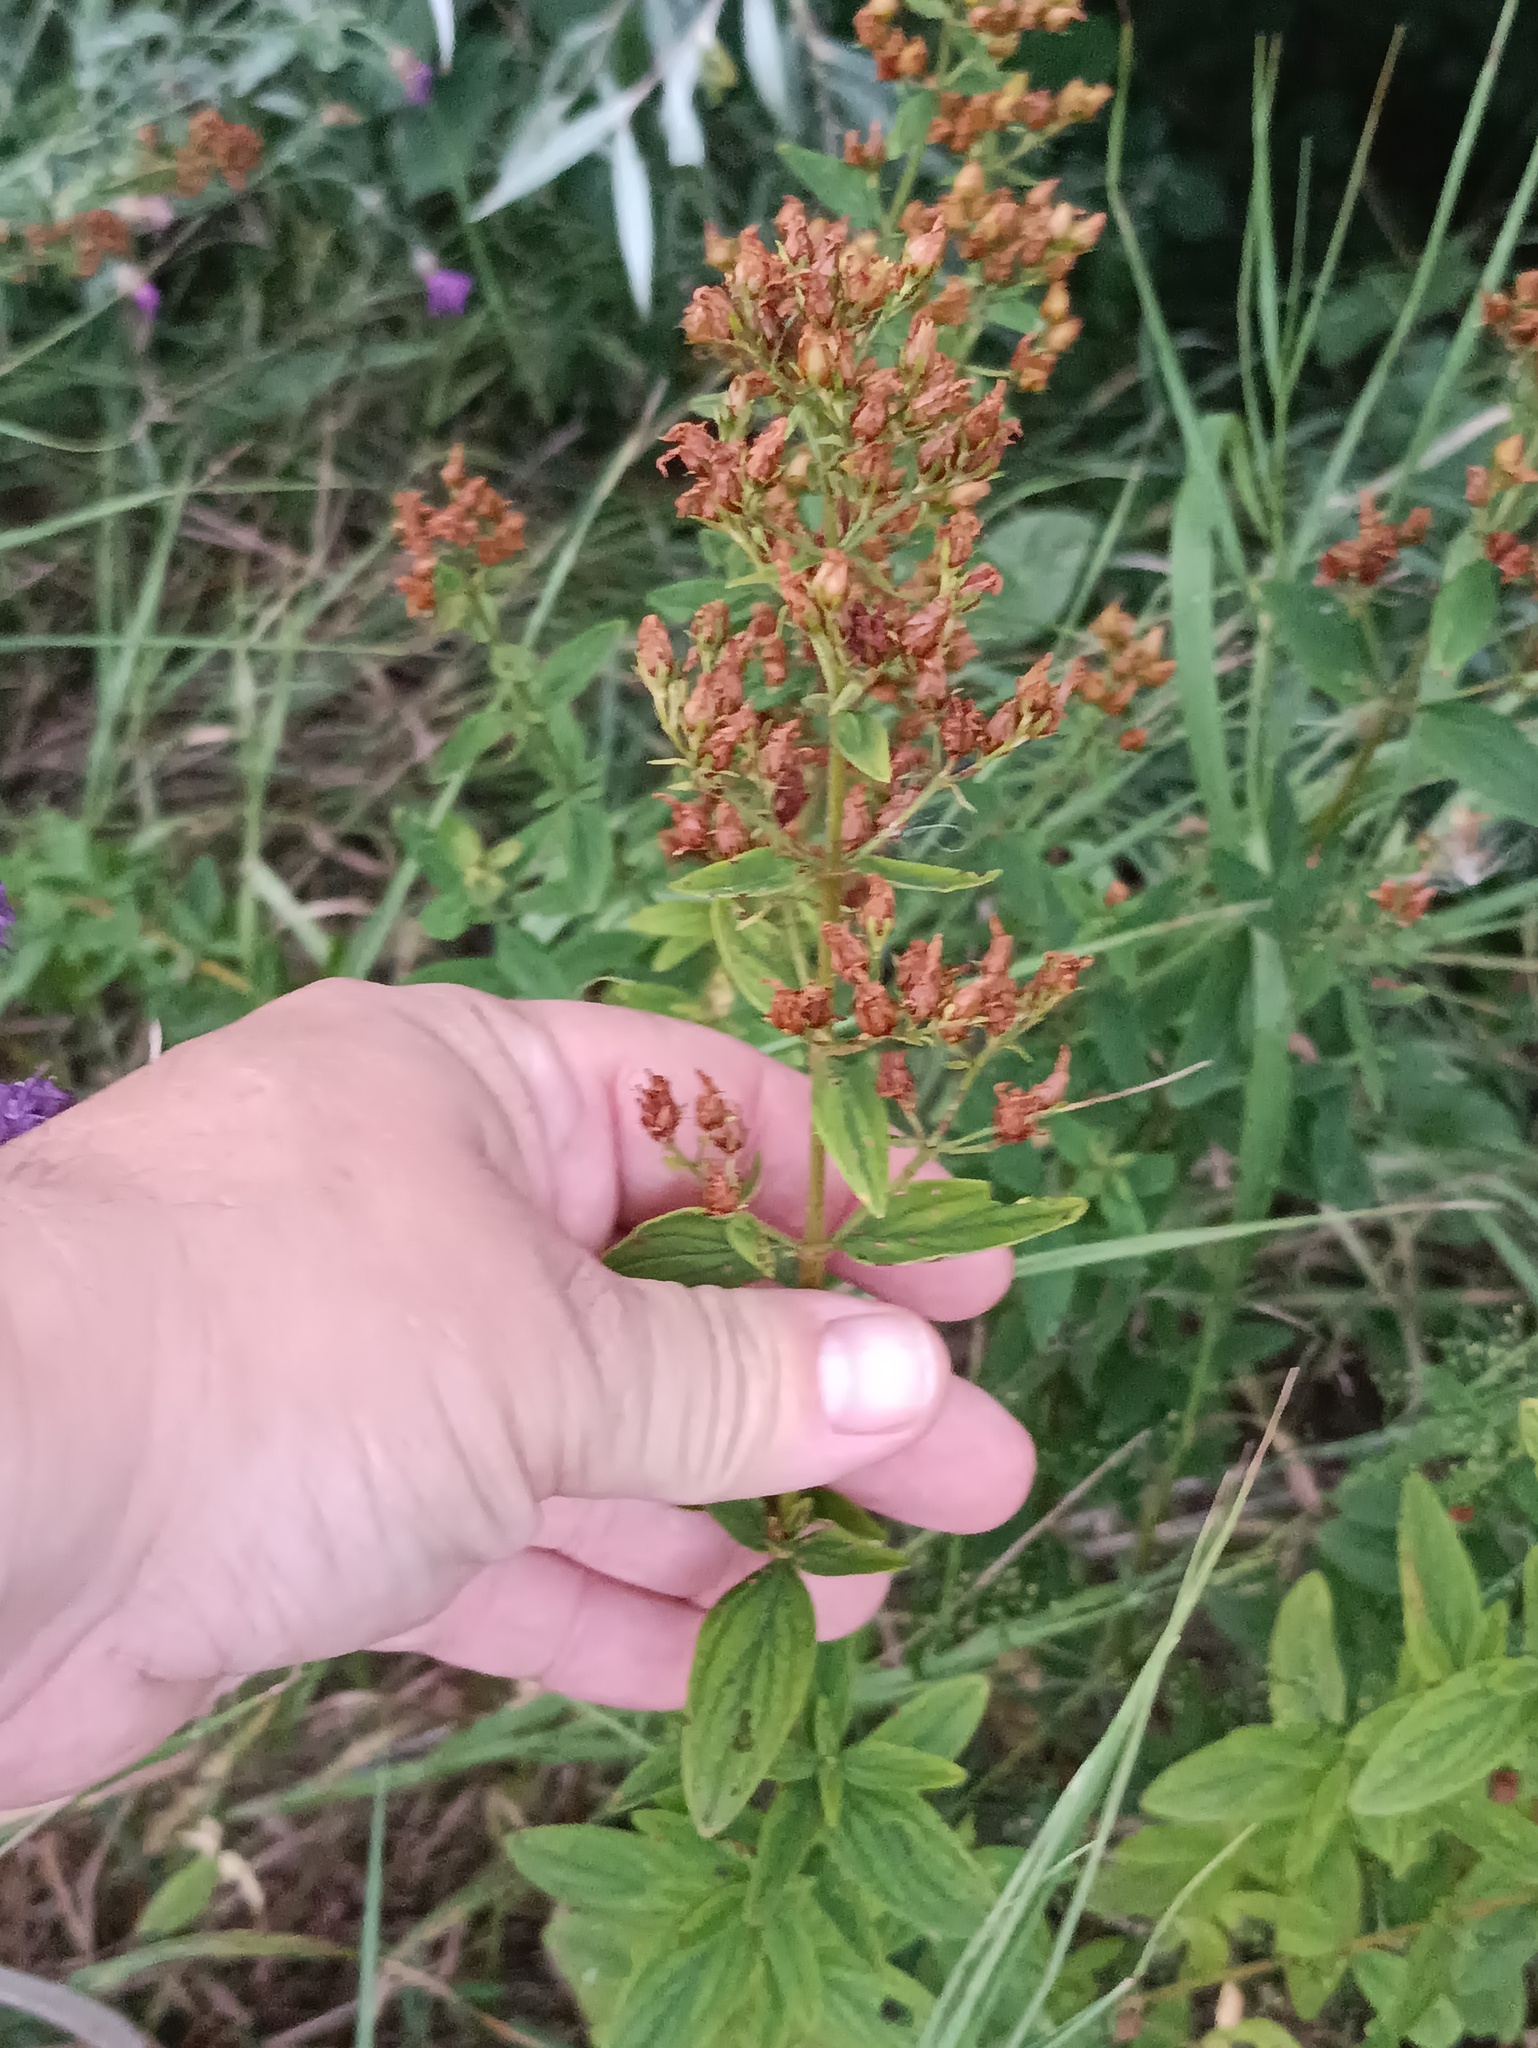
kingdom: Plantae
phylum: Tracheophyta
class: Magnoliopsida
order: Malpighiales
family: Hypericaceae
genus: Hypericum
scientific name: Hypericum hirsutum
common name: Hairy st. john's-wort
